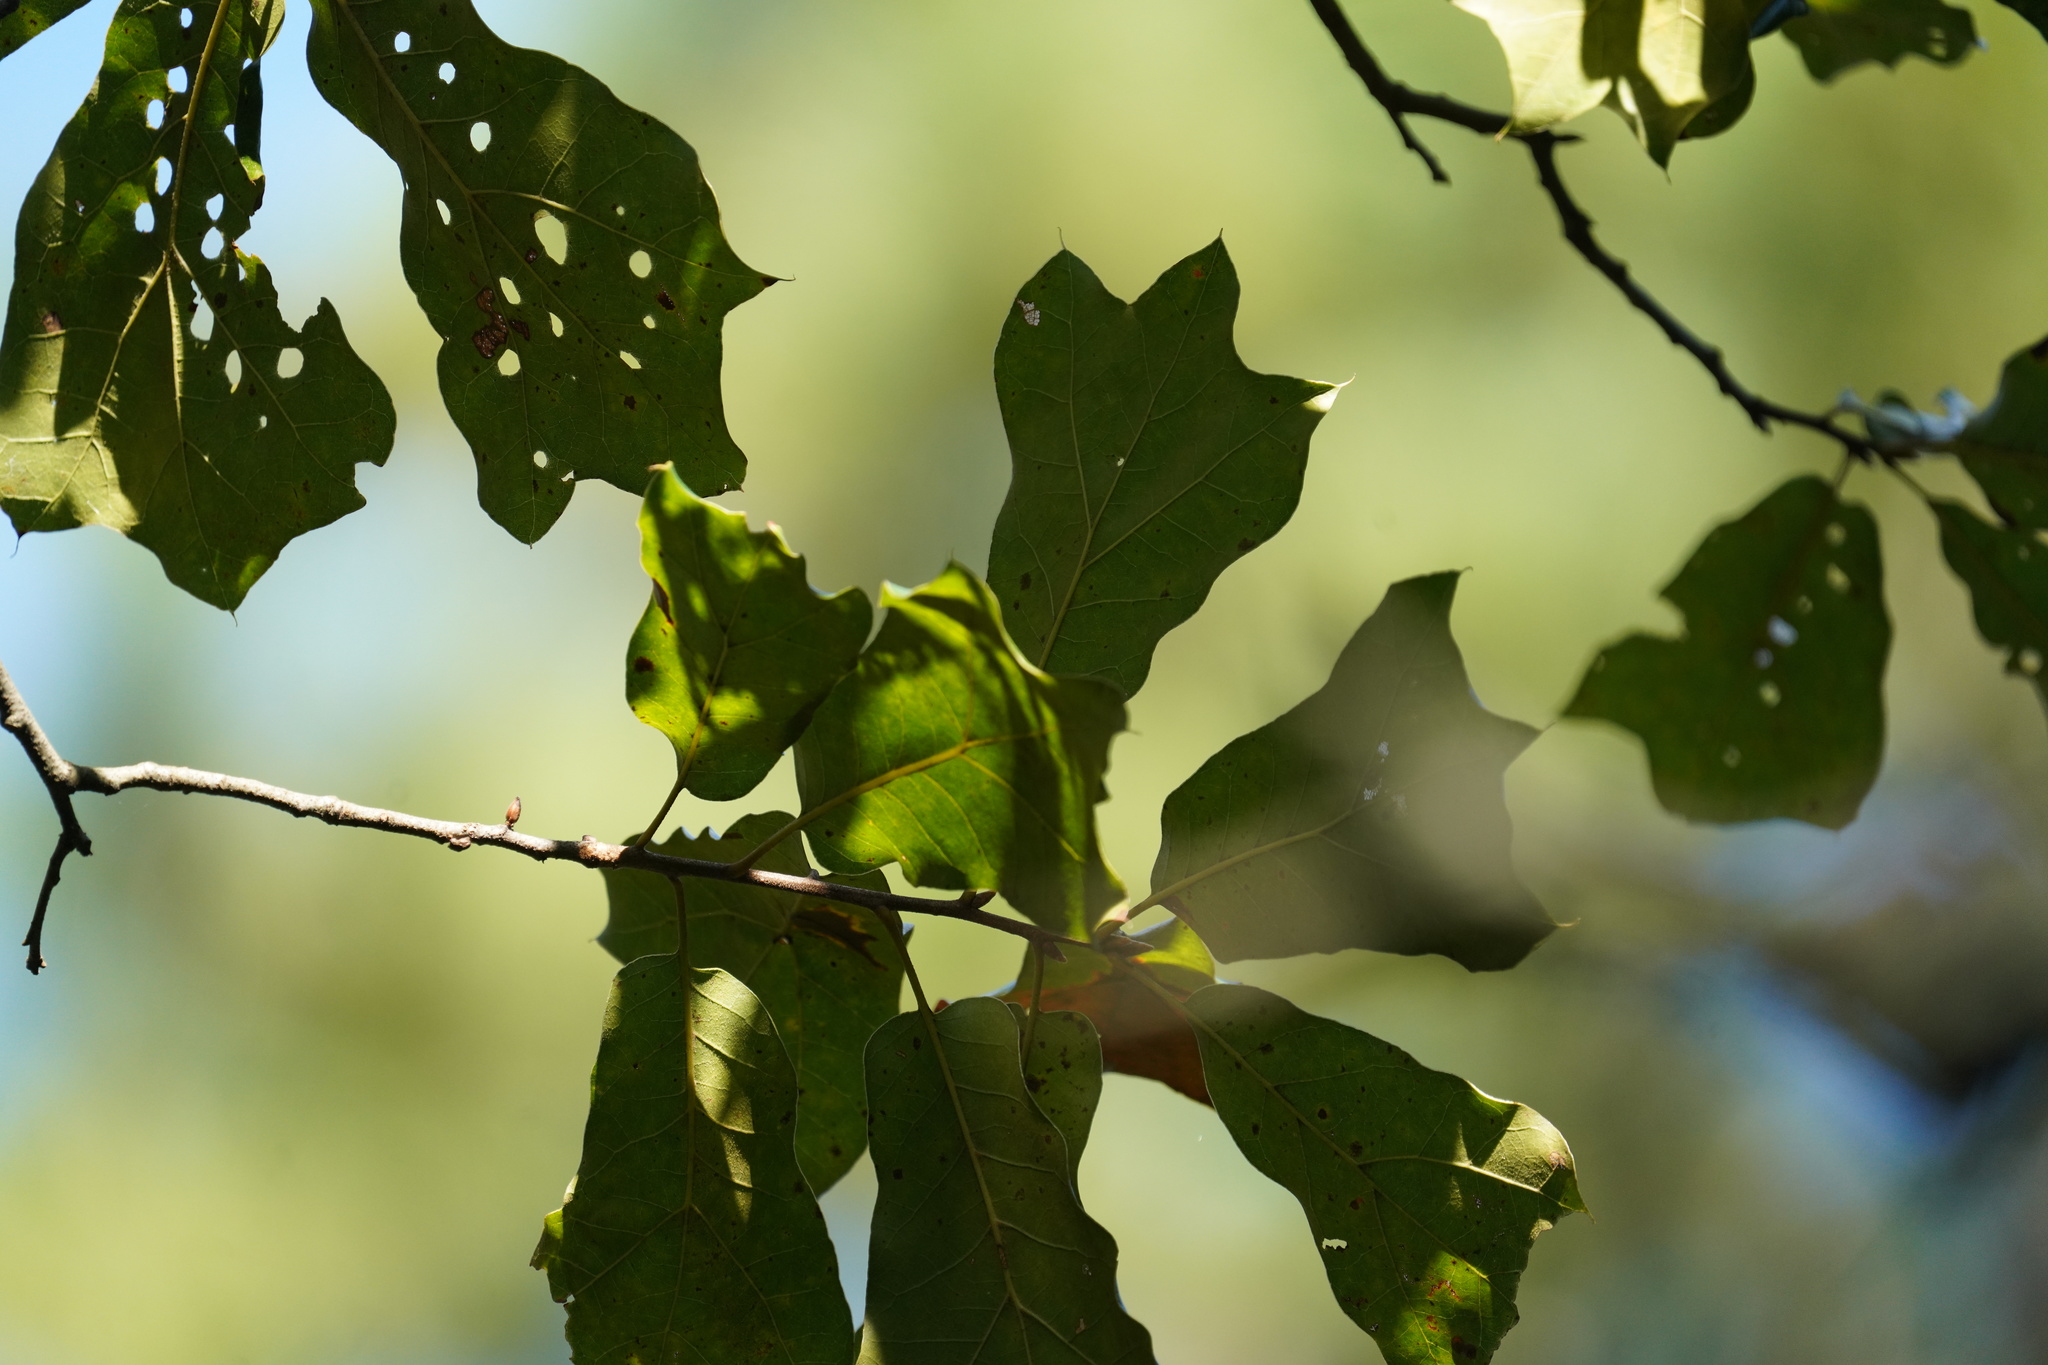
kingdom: Plantae
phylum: Tracheophyta
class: Magnoliopsida
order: Fagales
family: Fagaceae
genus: Quercus
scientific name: Quercus marilandica
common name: Blackjack oak
